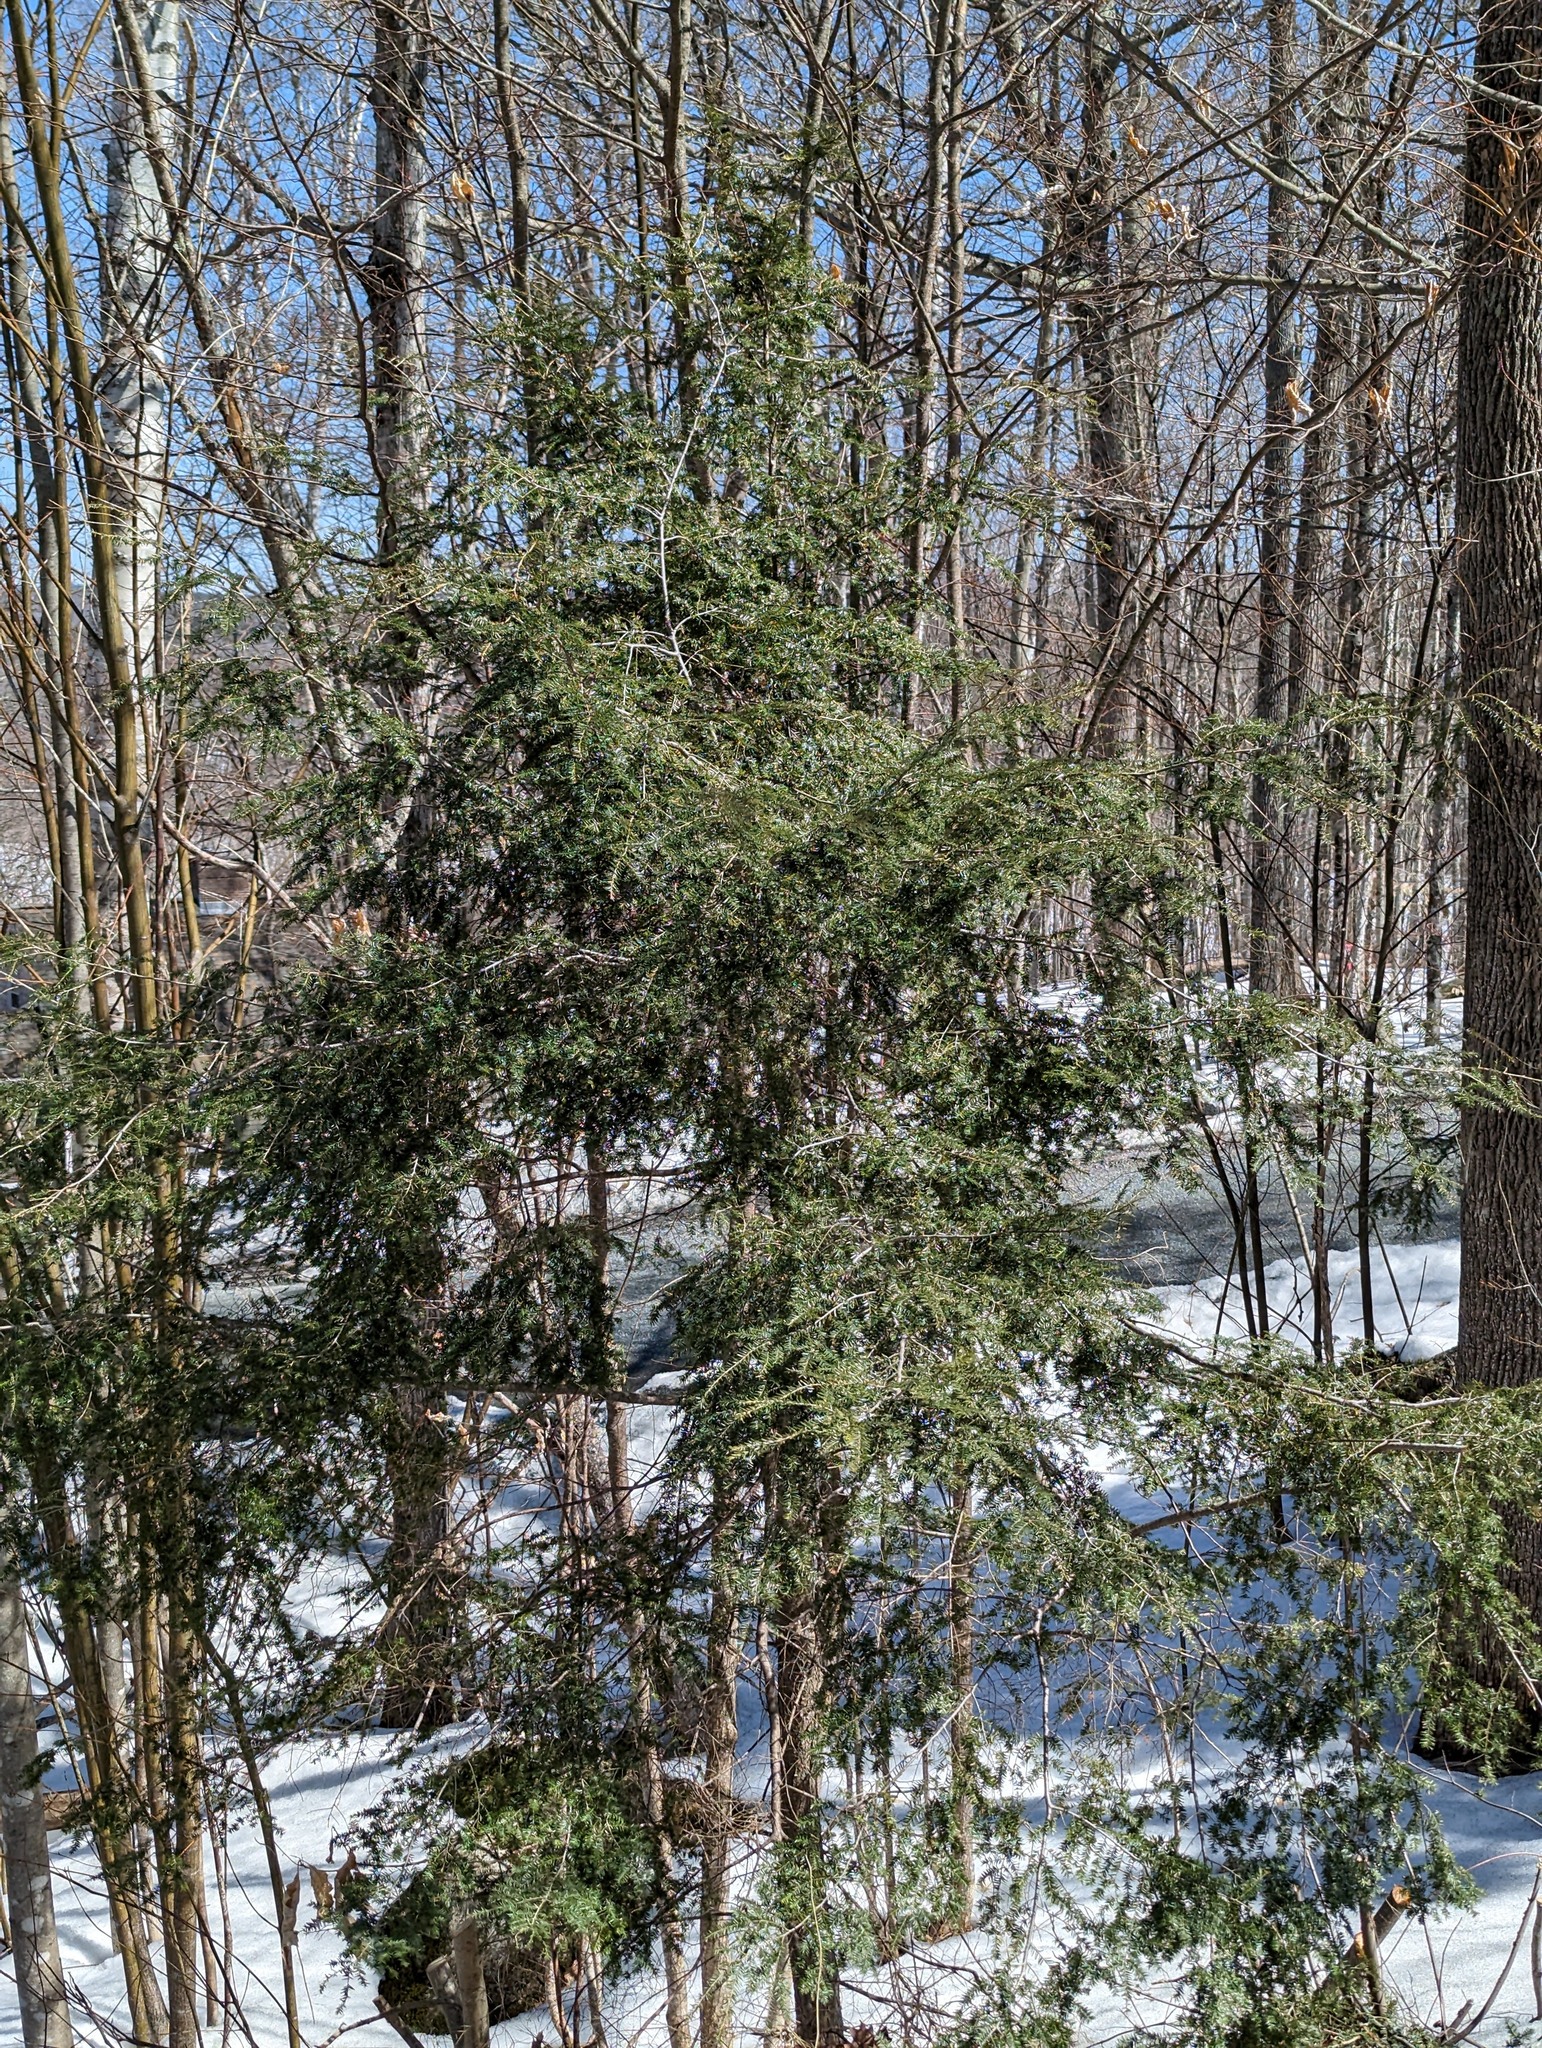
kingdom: Plantae
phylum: Tracheophyta
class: Pinopsida
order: Pinales
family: Pinaceae
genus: Tsuga
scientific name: Tsuga canadensis
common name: Eastern hemlock
